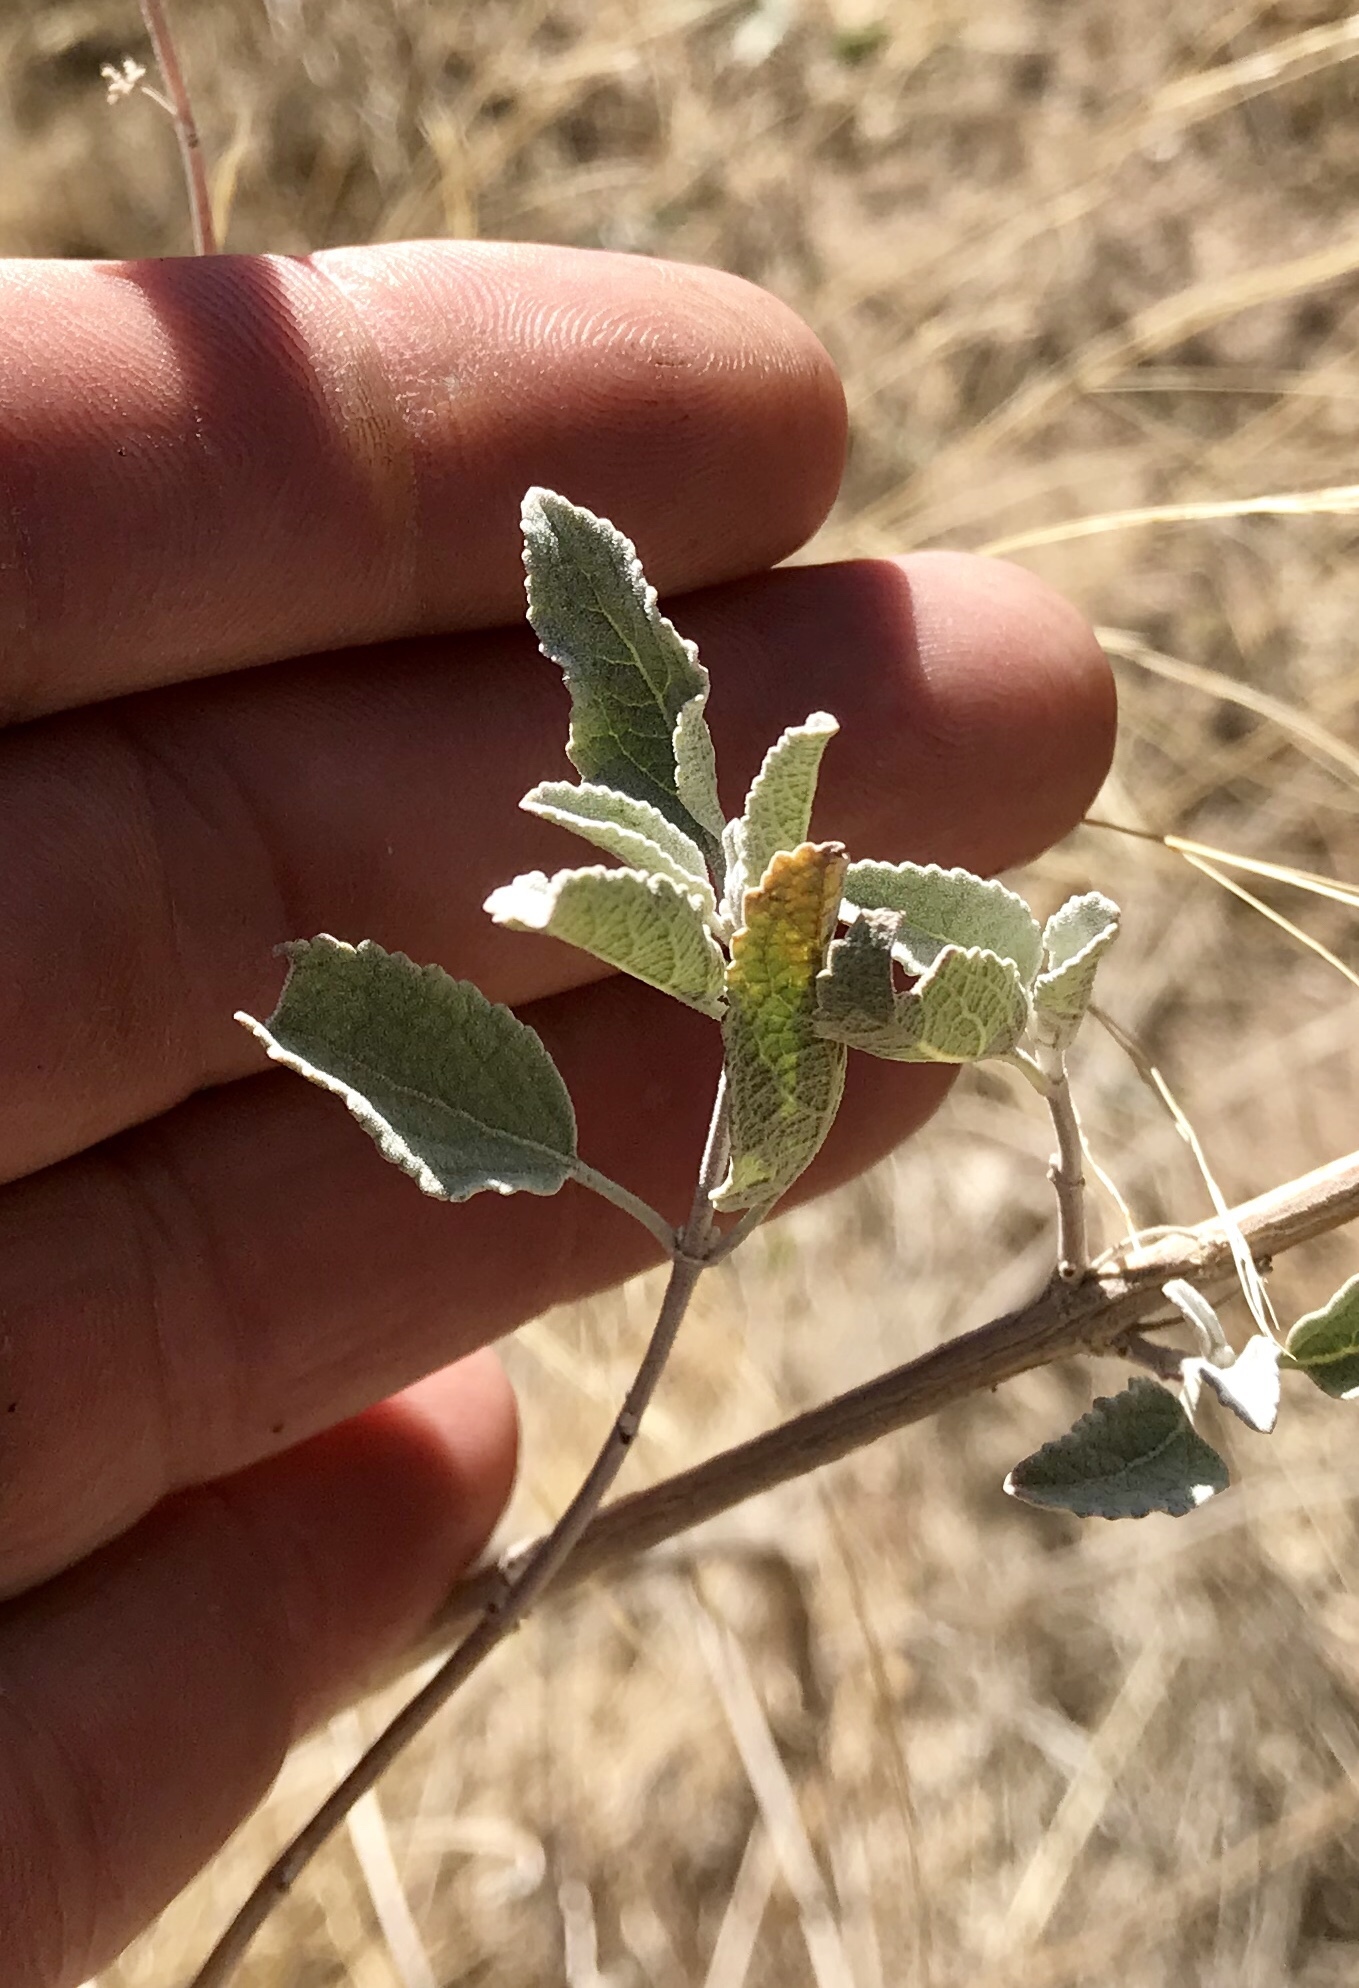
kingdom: Plantae
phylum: Tracheophyta
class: Magnoliopsida
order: Lamiales
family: Lamiaceae
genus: Condea
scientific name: Condea emoryi
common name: Chia
